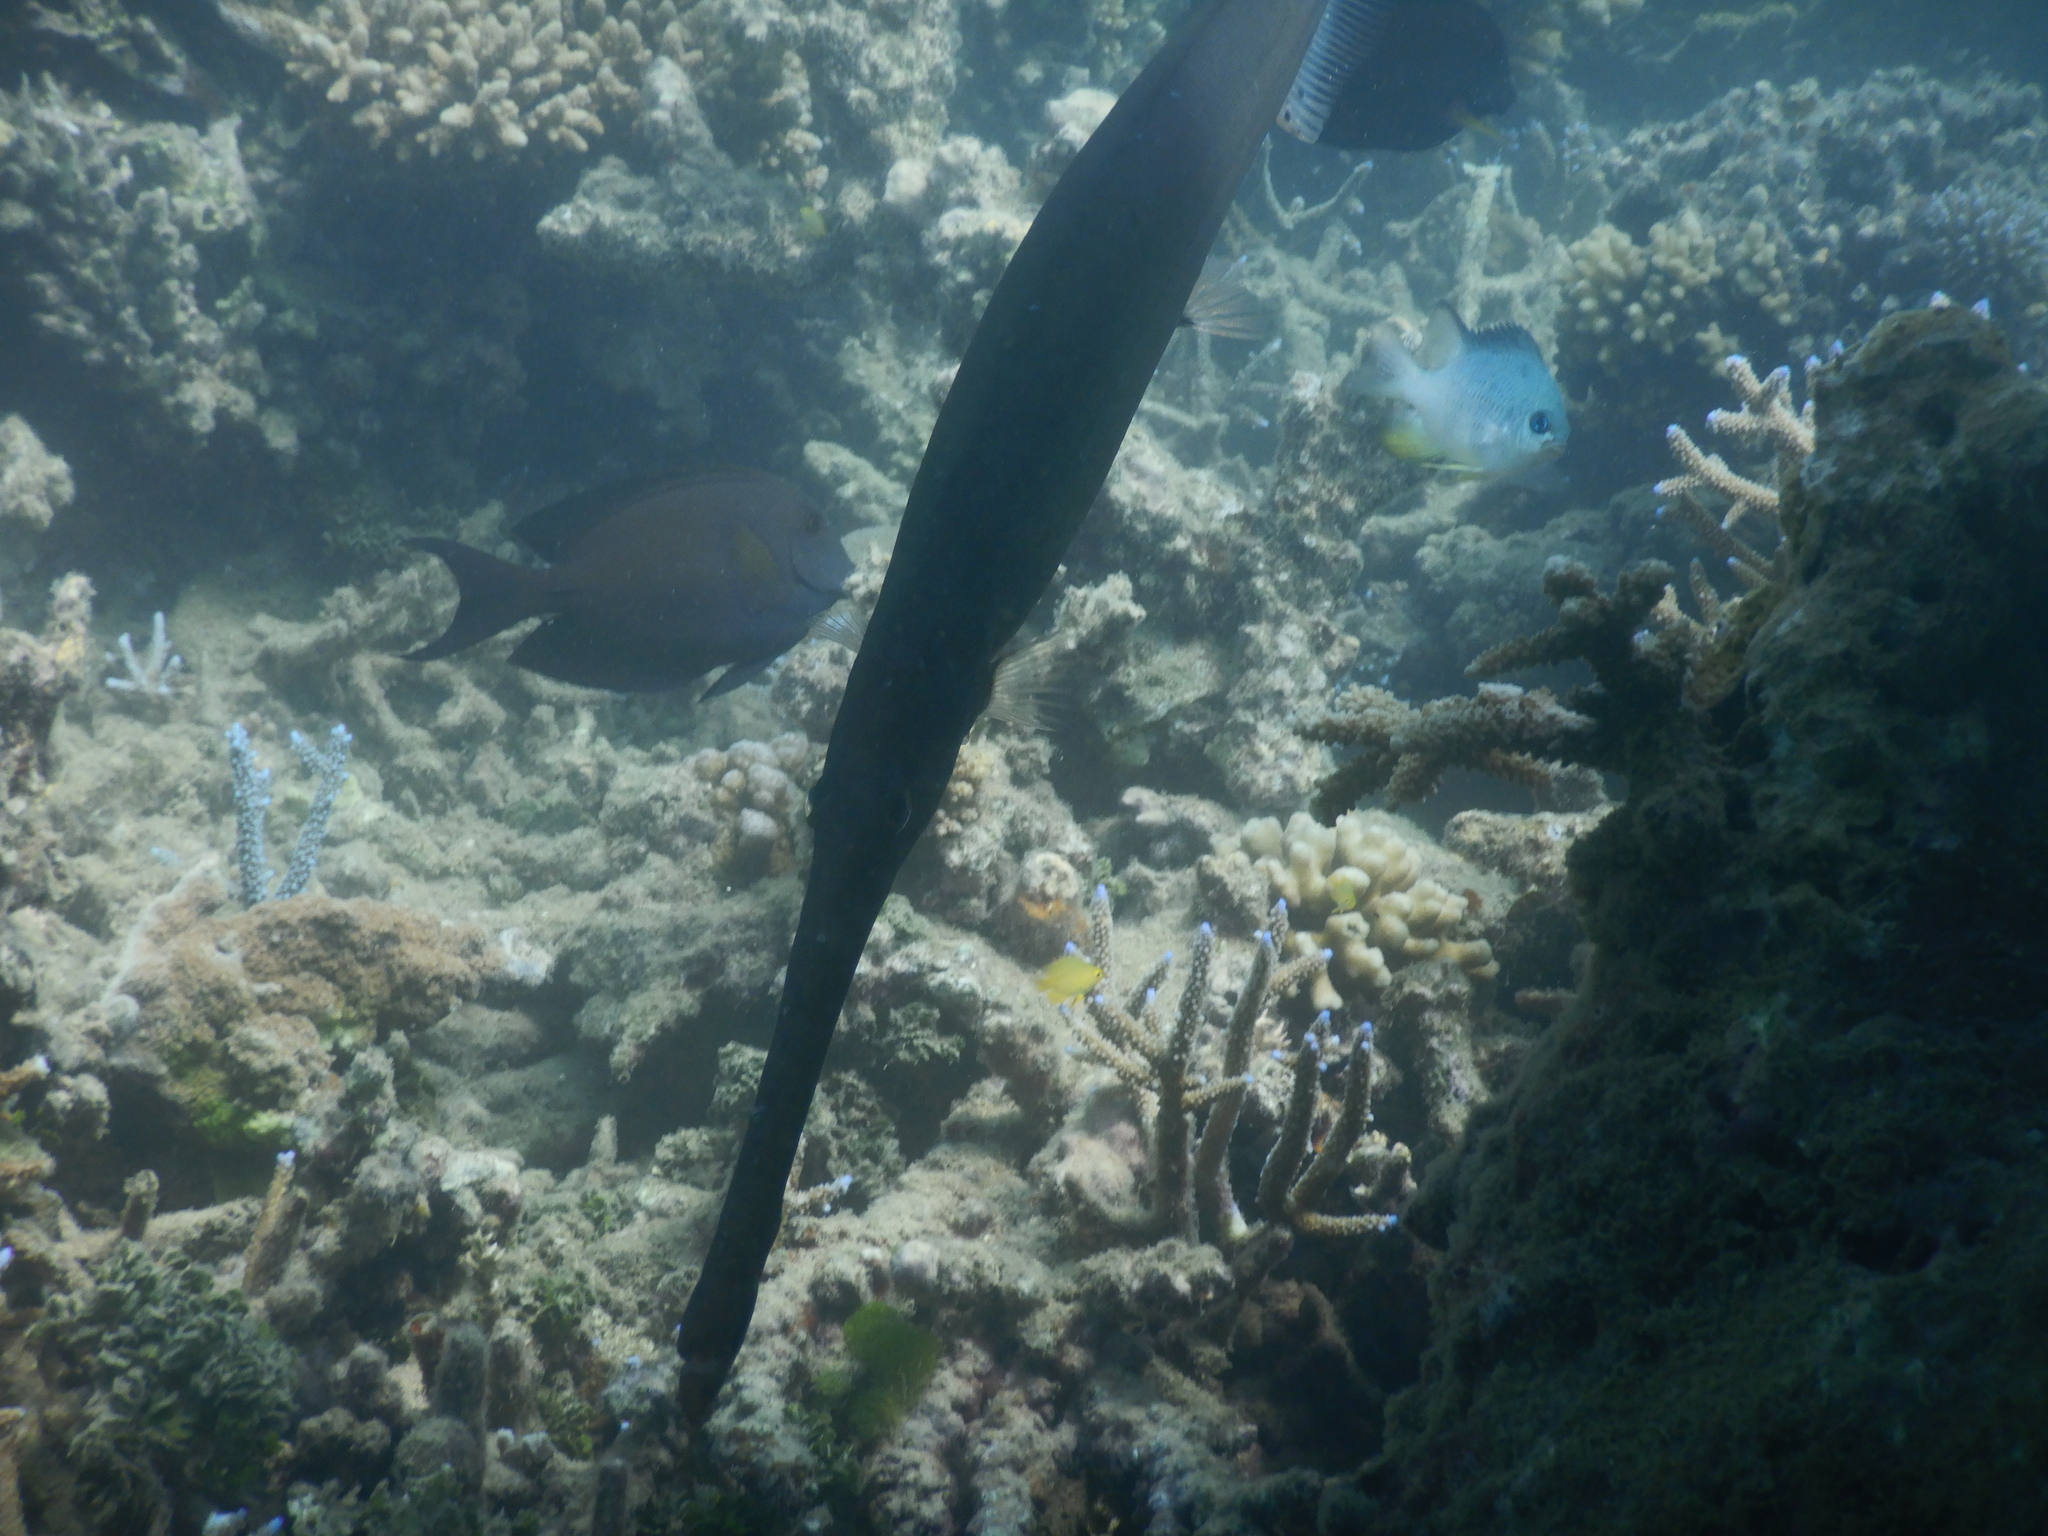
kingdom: Animalia
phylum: Chordata
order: Syngnathiformes
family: Aulostomidae
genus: Aulostomus
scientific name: Aulostomus chinensis
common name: Chinese trumpetfish
